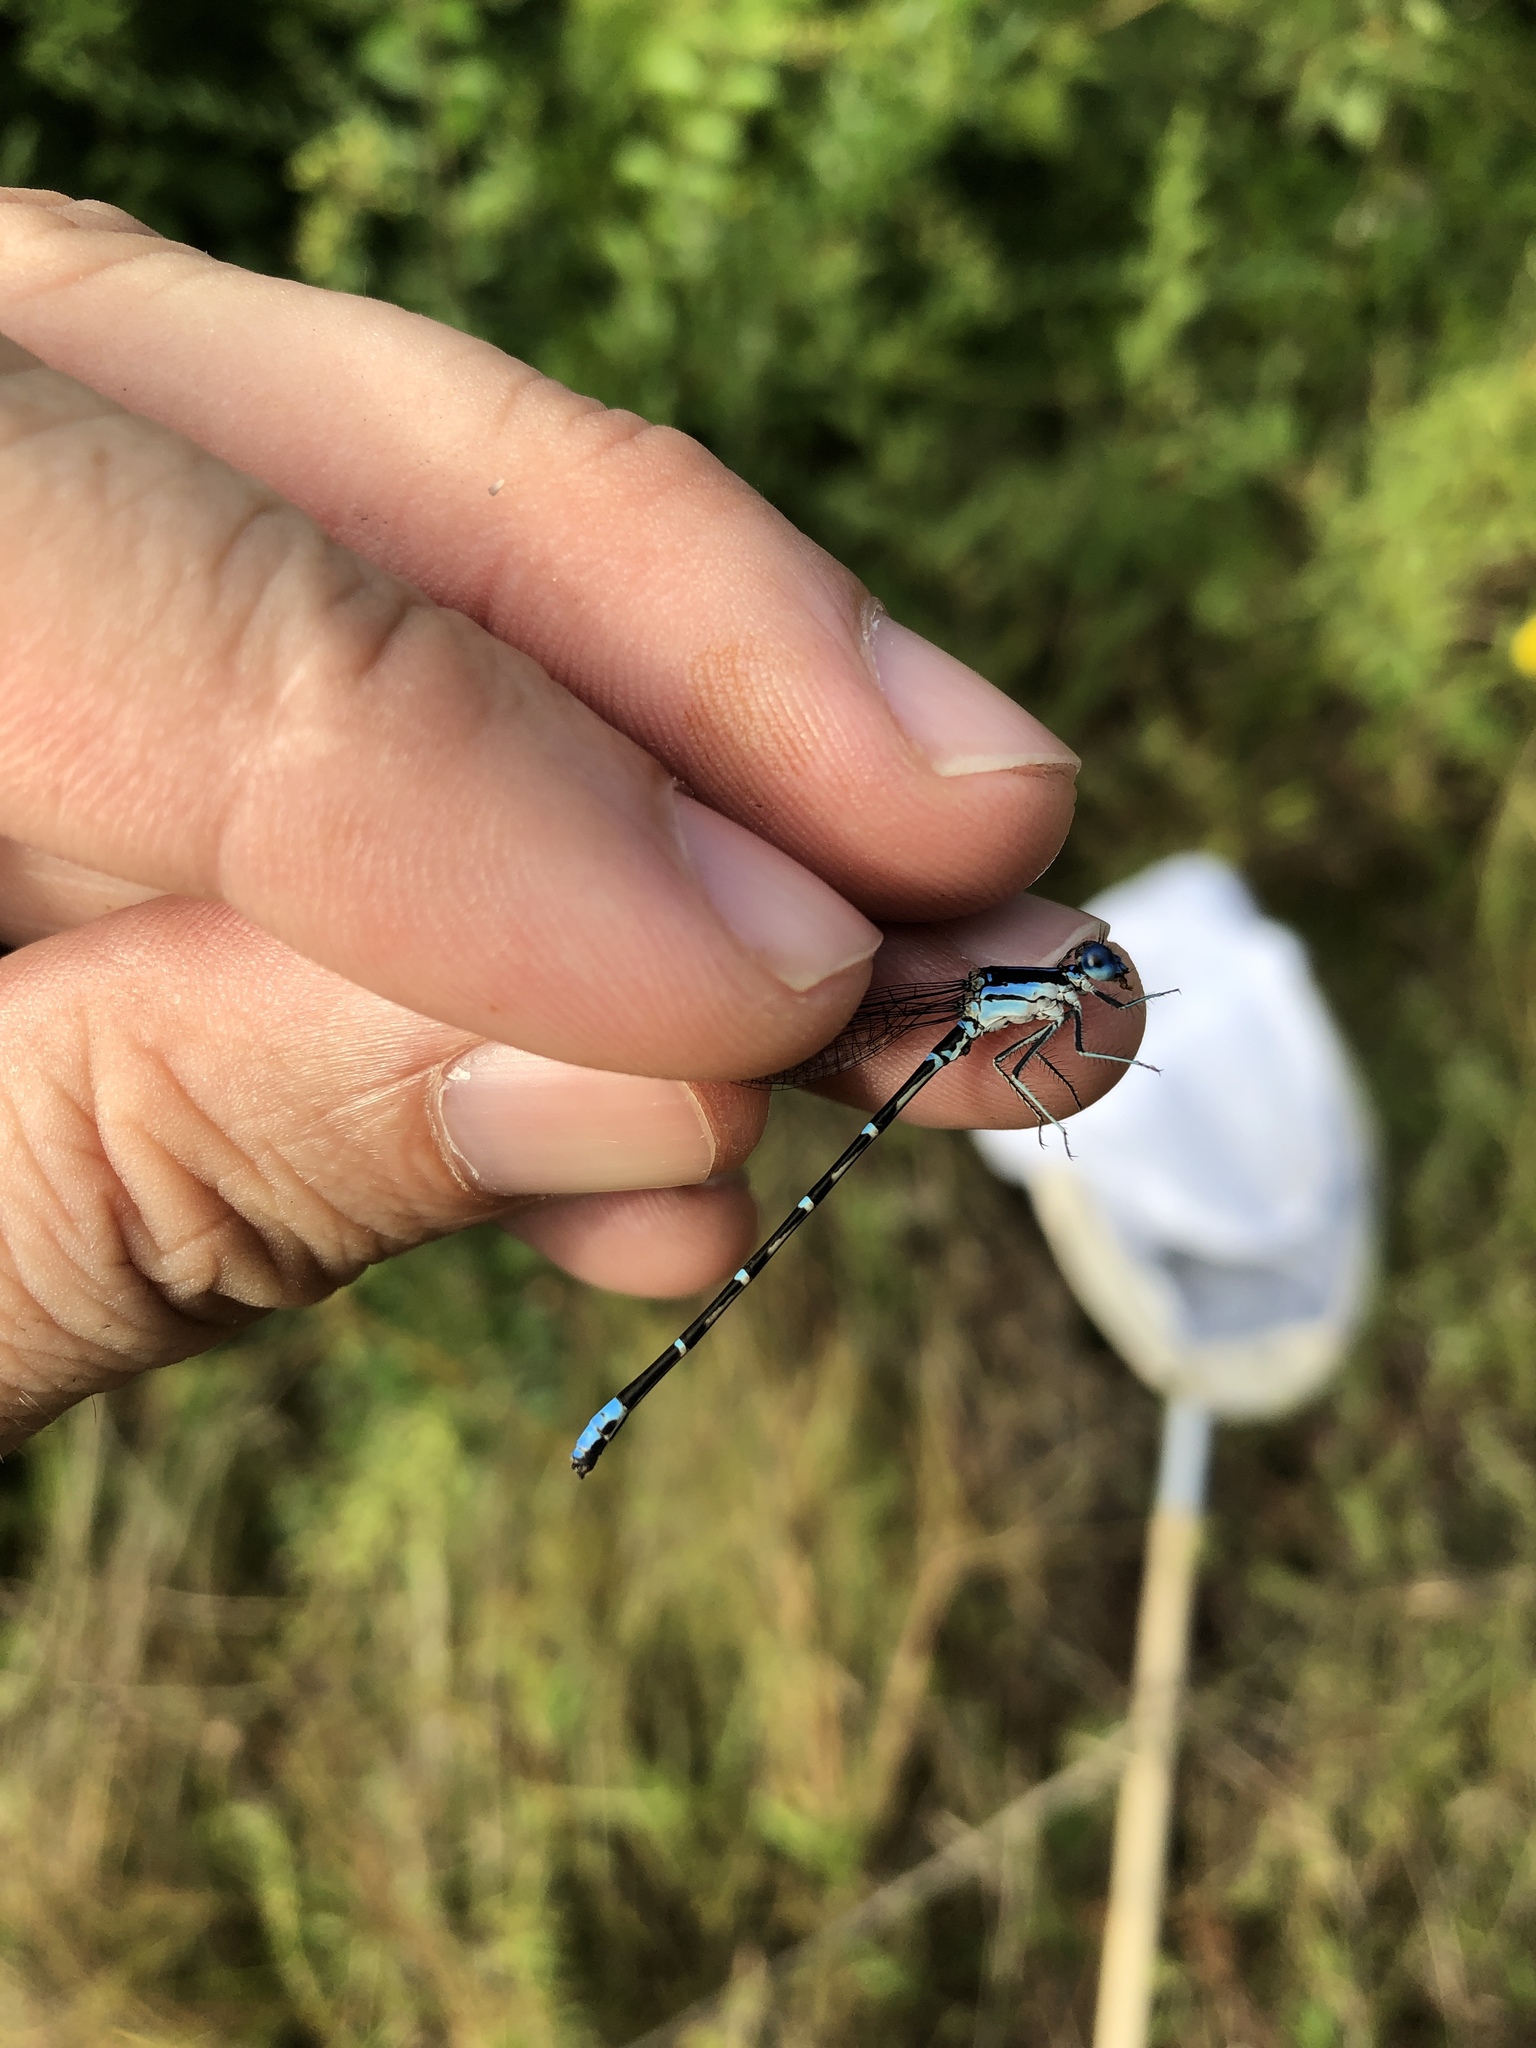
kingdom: Animalia
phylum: Arthropoda
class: Insecta
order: Odonata
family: Coenagrionidae
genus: Argia
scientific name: Argia sedula
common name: Blue-ringed dancer
